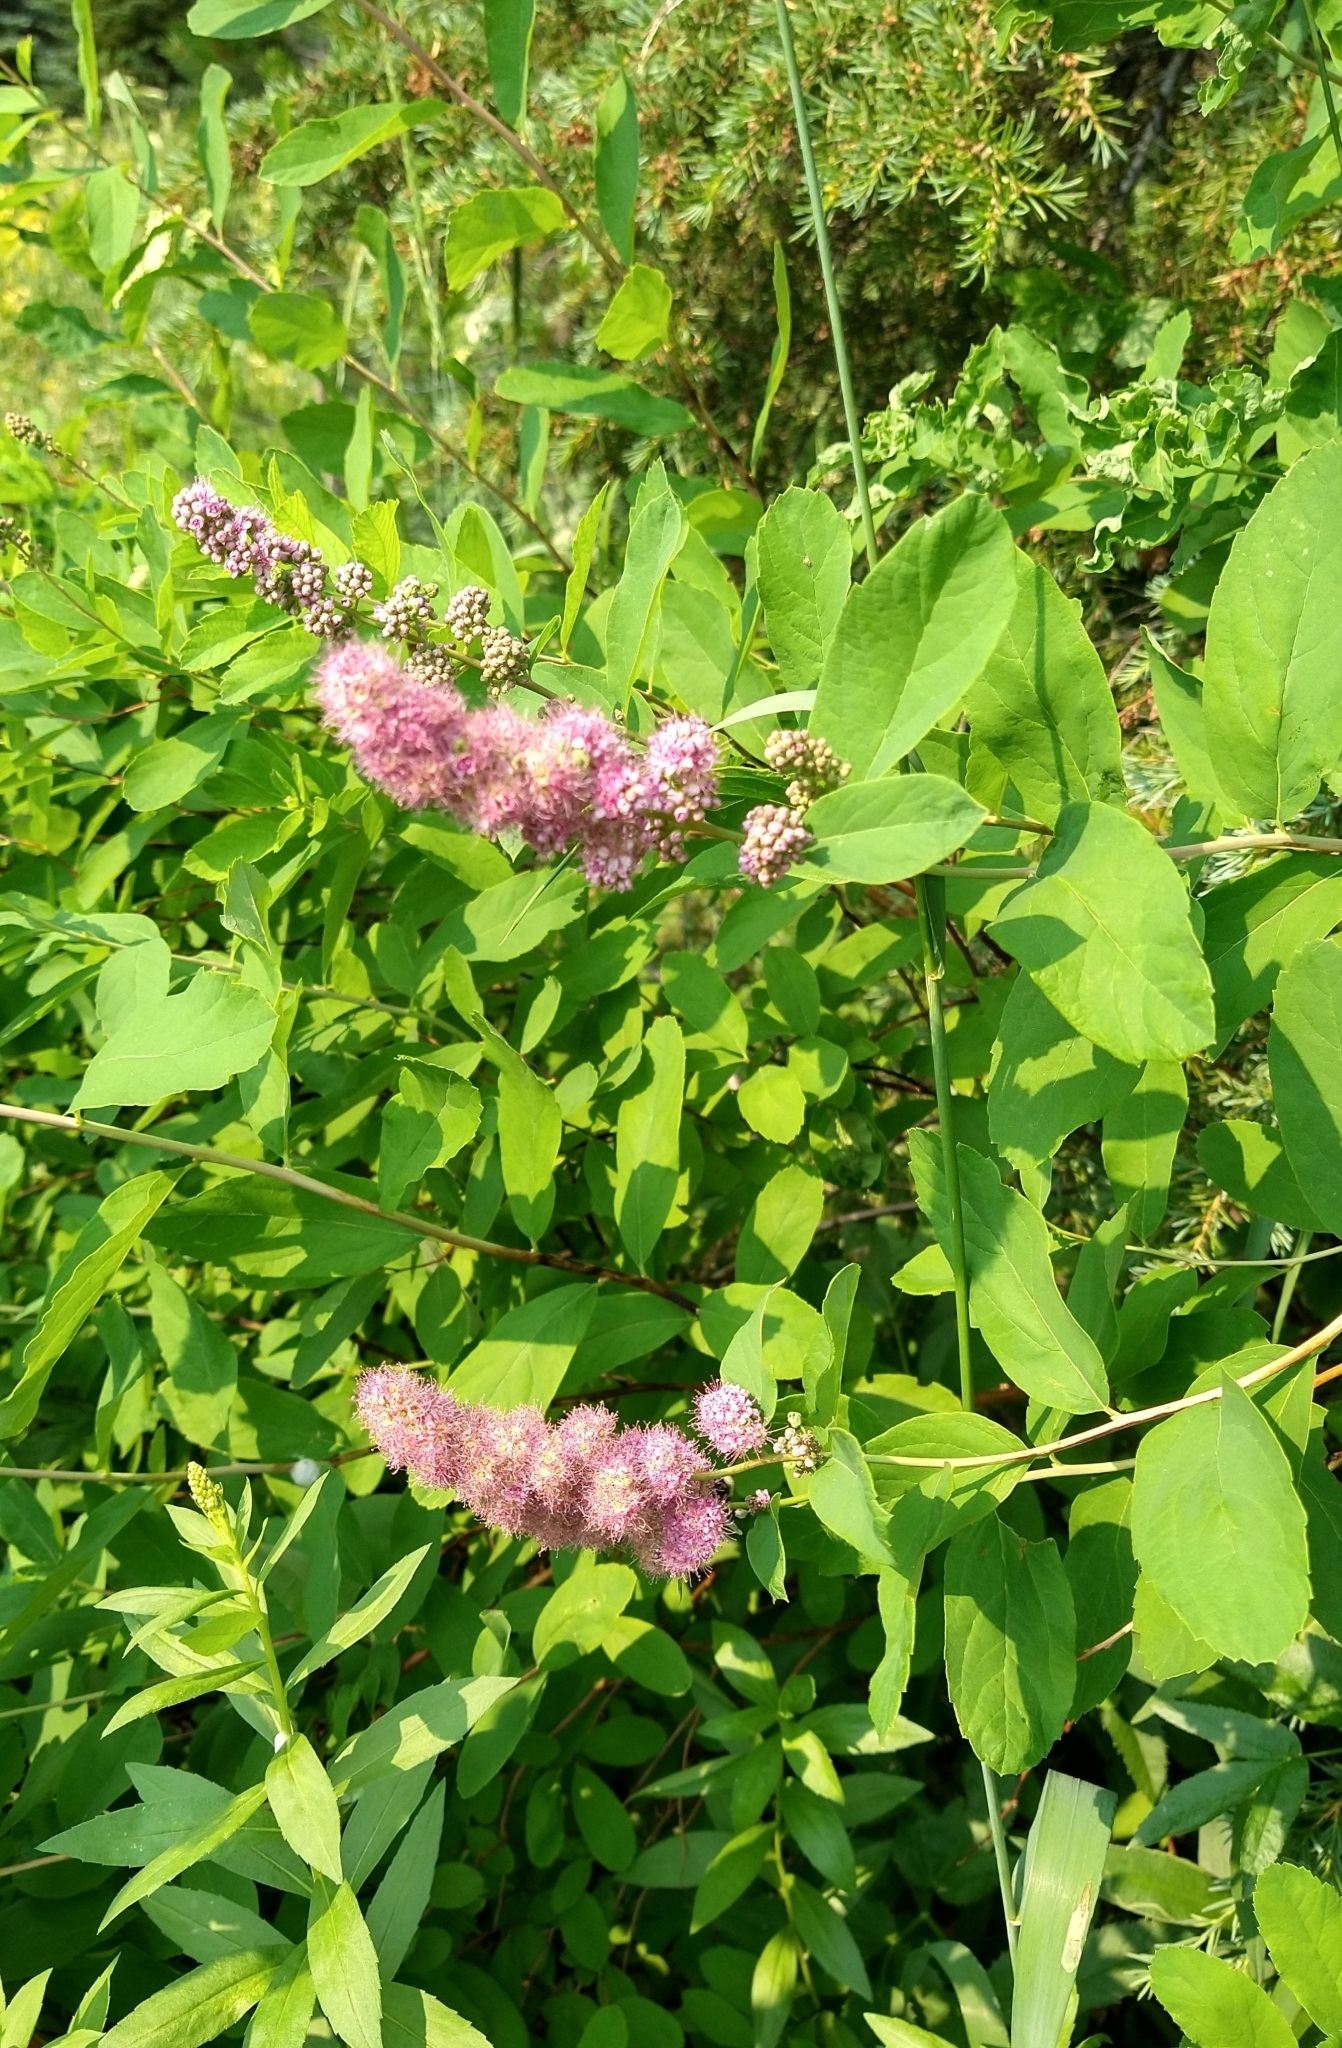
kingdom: Plantae
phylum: Tracheophyta
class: Magnoliopsida
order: Rosales
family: Rosaceae
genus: Spiraea
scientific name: Spiraea douglasii
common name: Steeplebush
